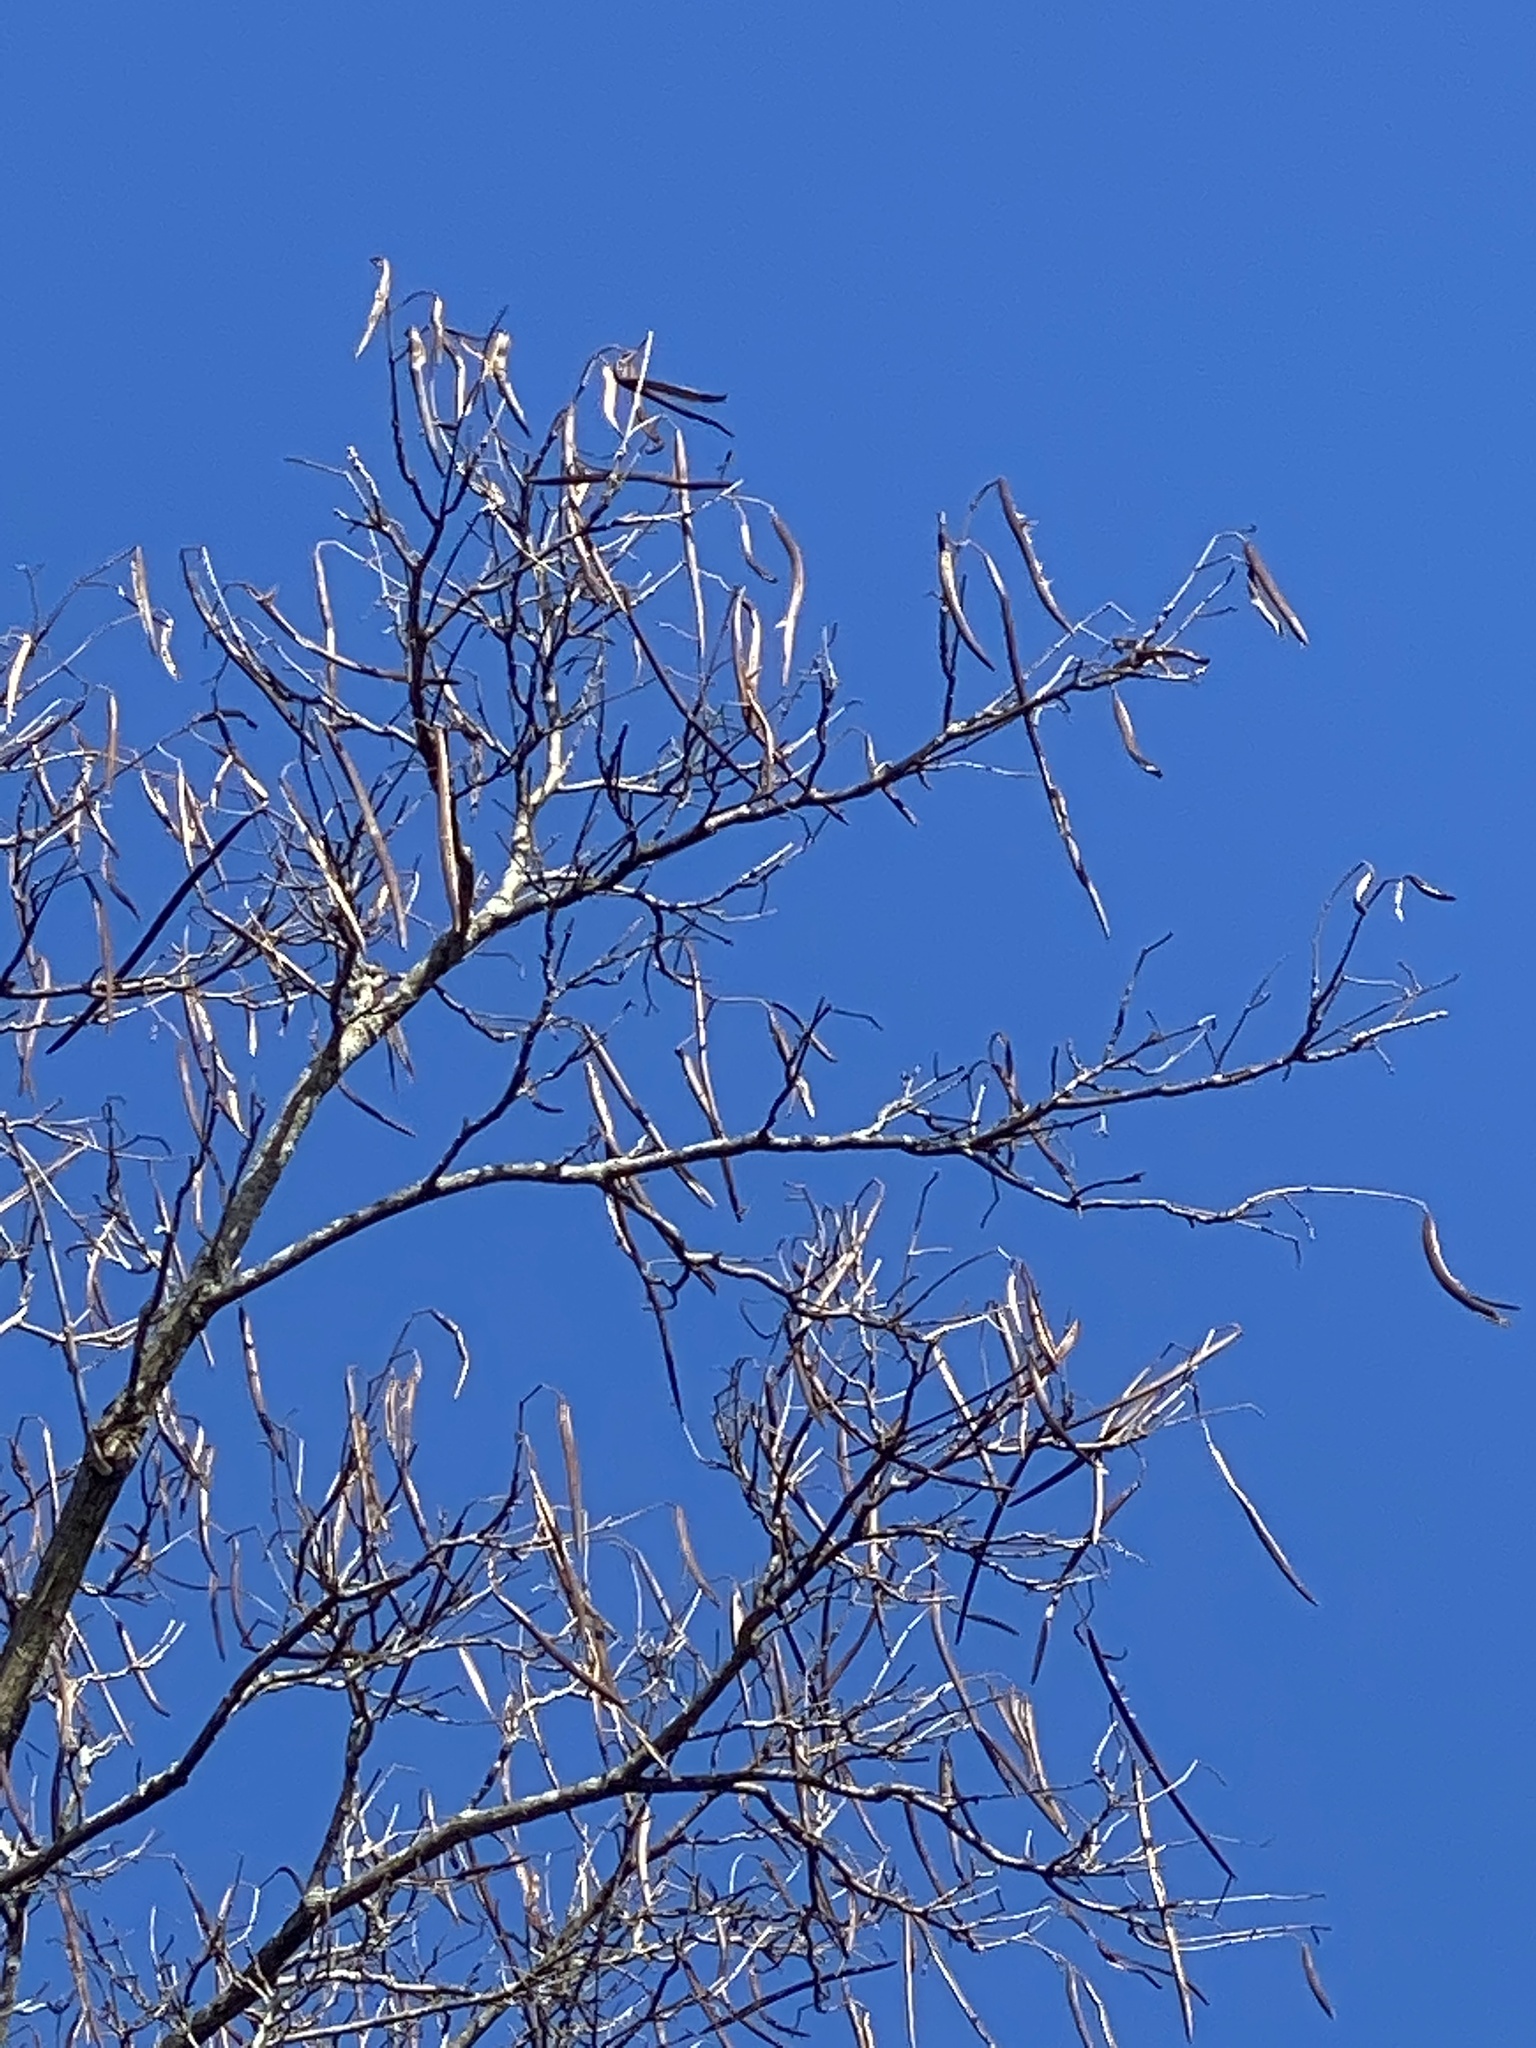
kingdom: Plantae
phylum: Tracheophyta
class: Magnoliopsida
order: Lamiales
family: Bignoniaceae
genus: Catalpa
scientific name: Catalpa
